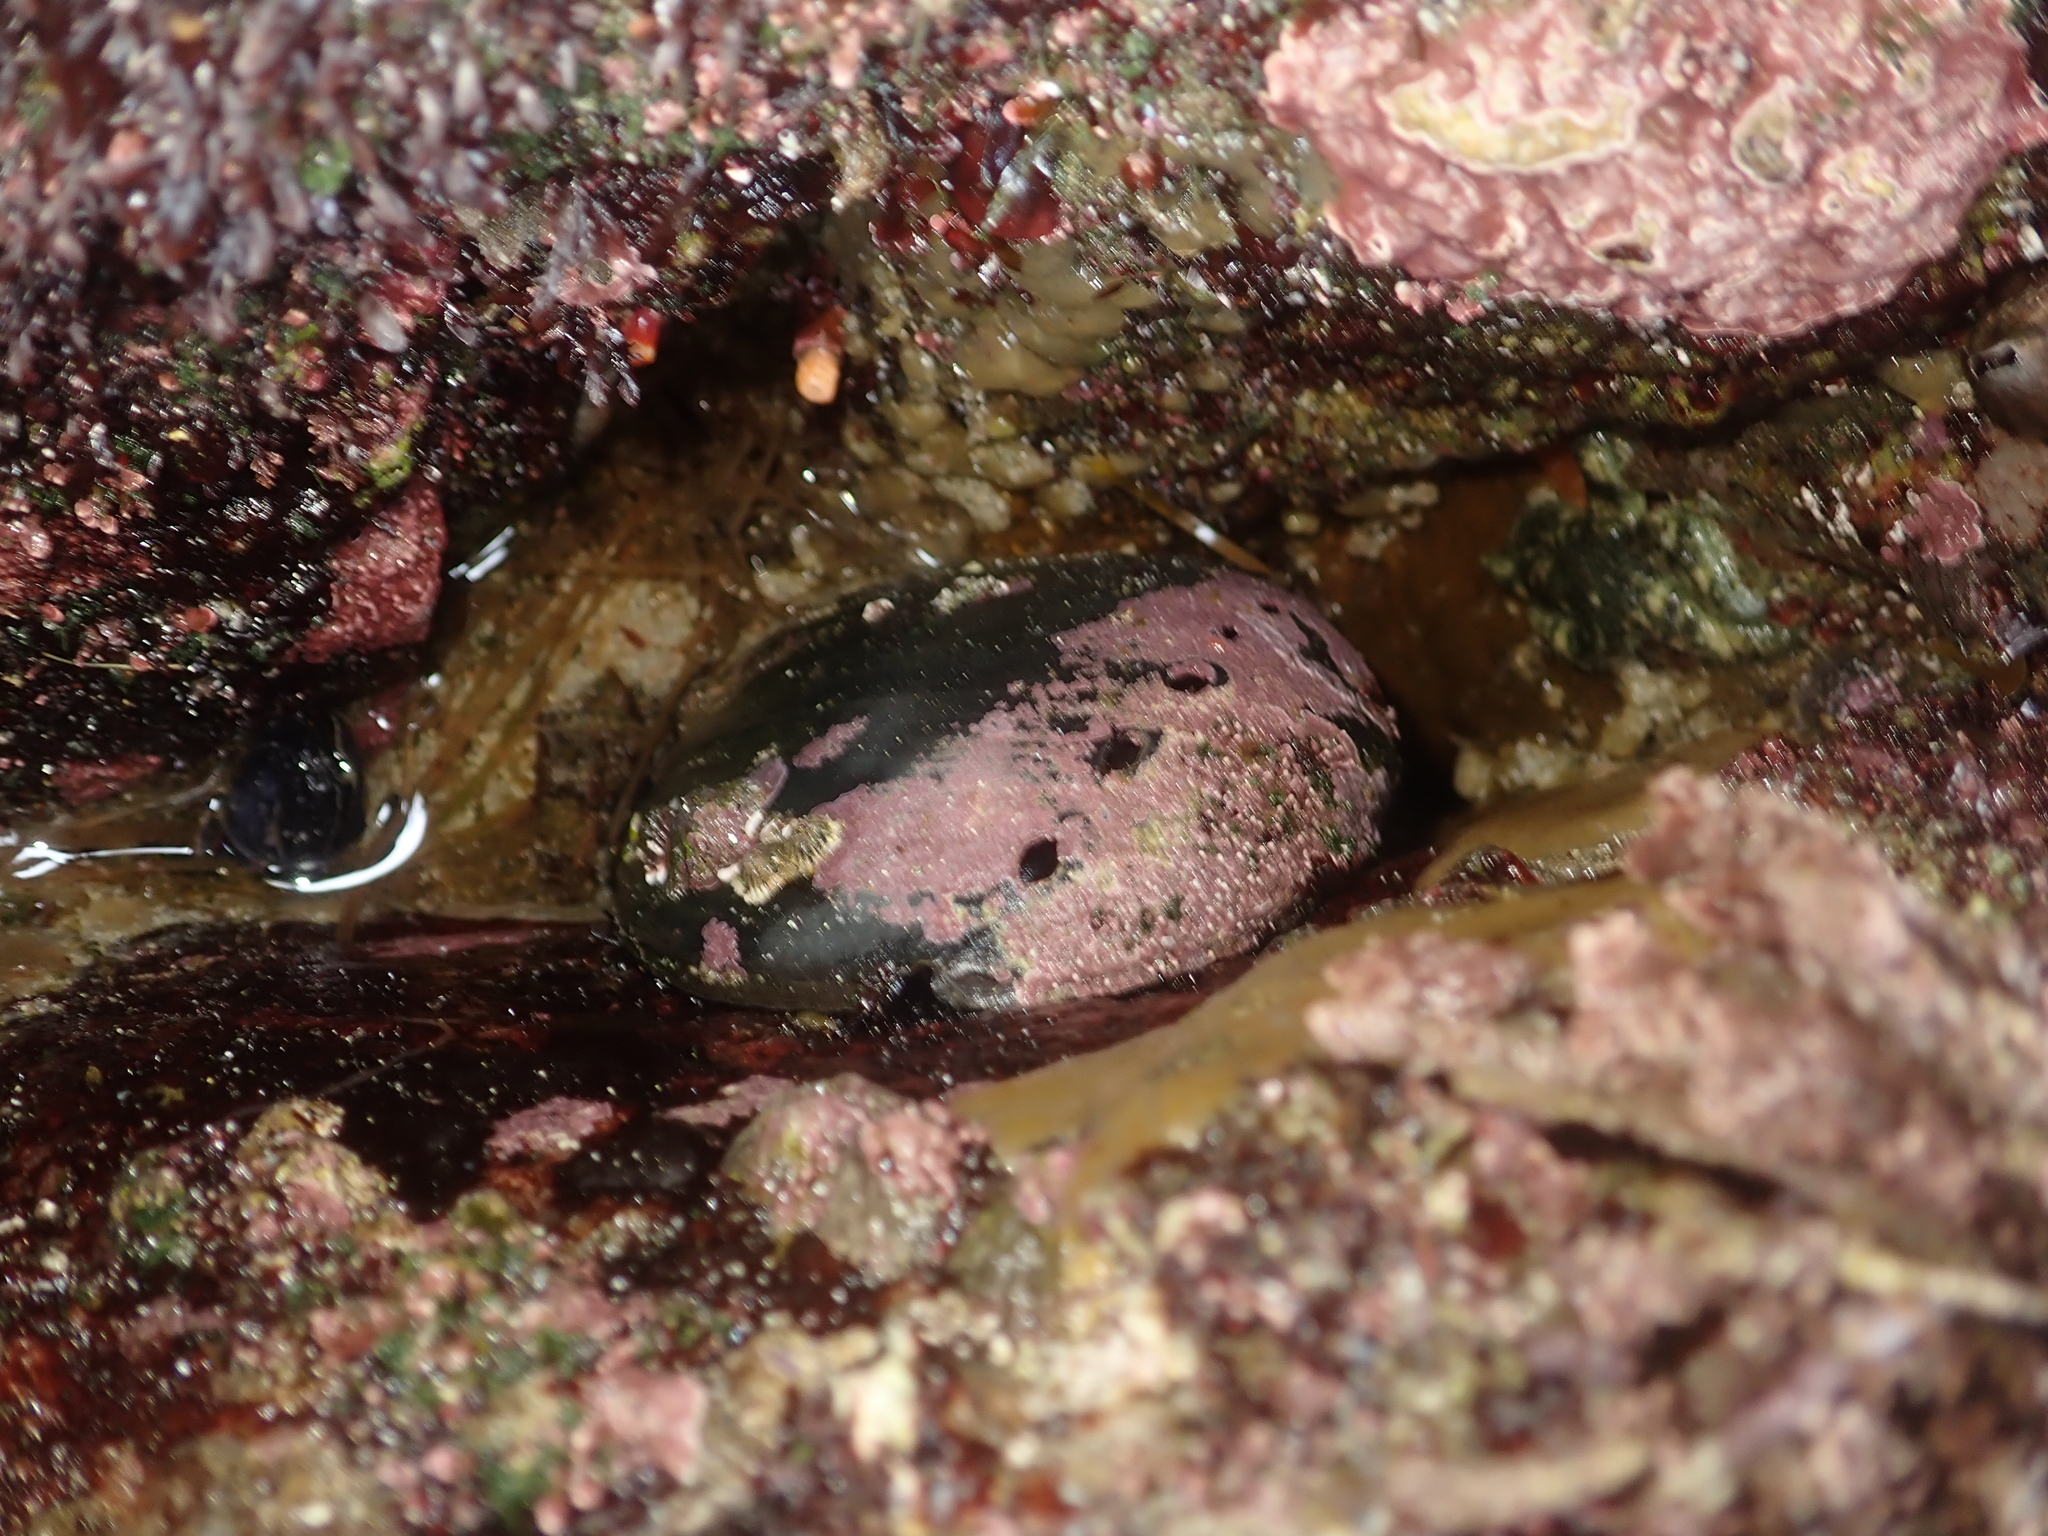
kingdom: Animalia
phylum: Mollusca
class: Gastropoda
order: Lepetellida
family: Haliotidae
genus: Haliotis
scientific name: Haliotis cracherodii
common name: Black abalone
